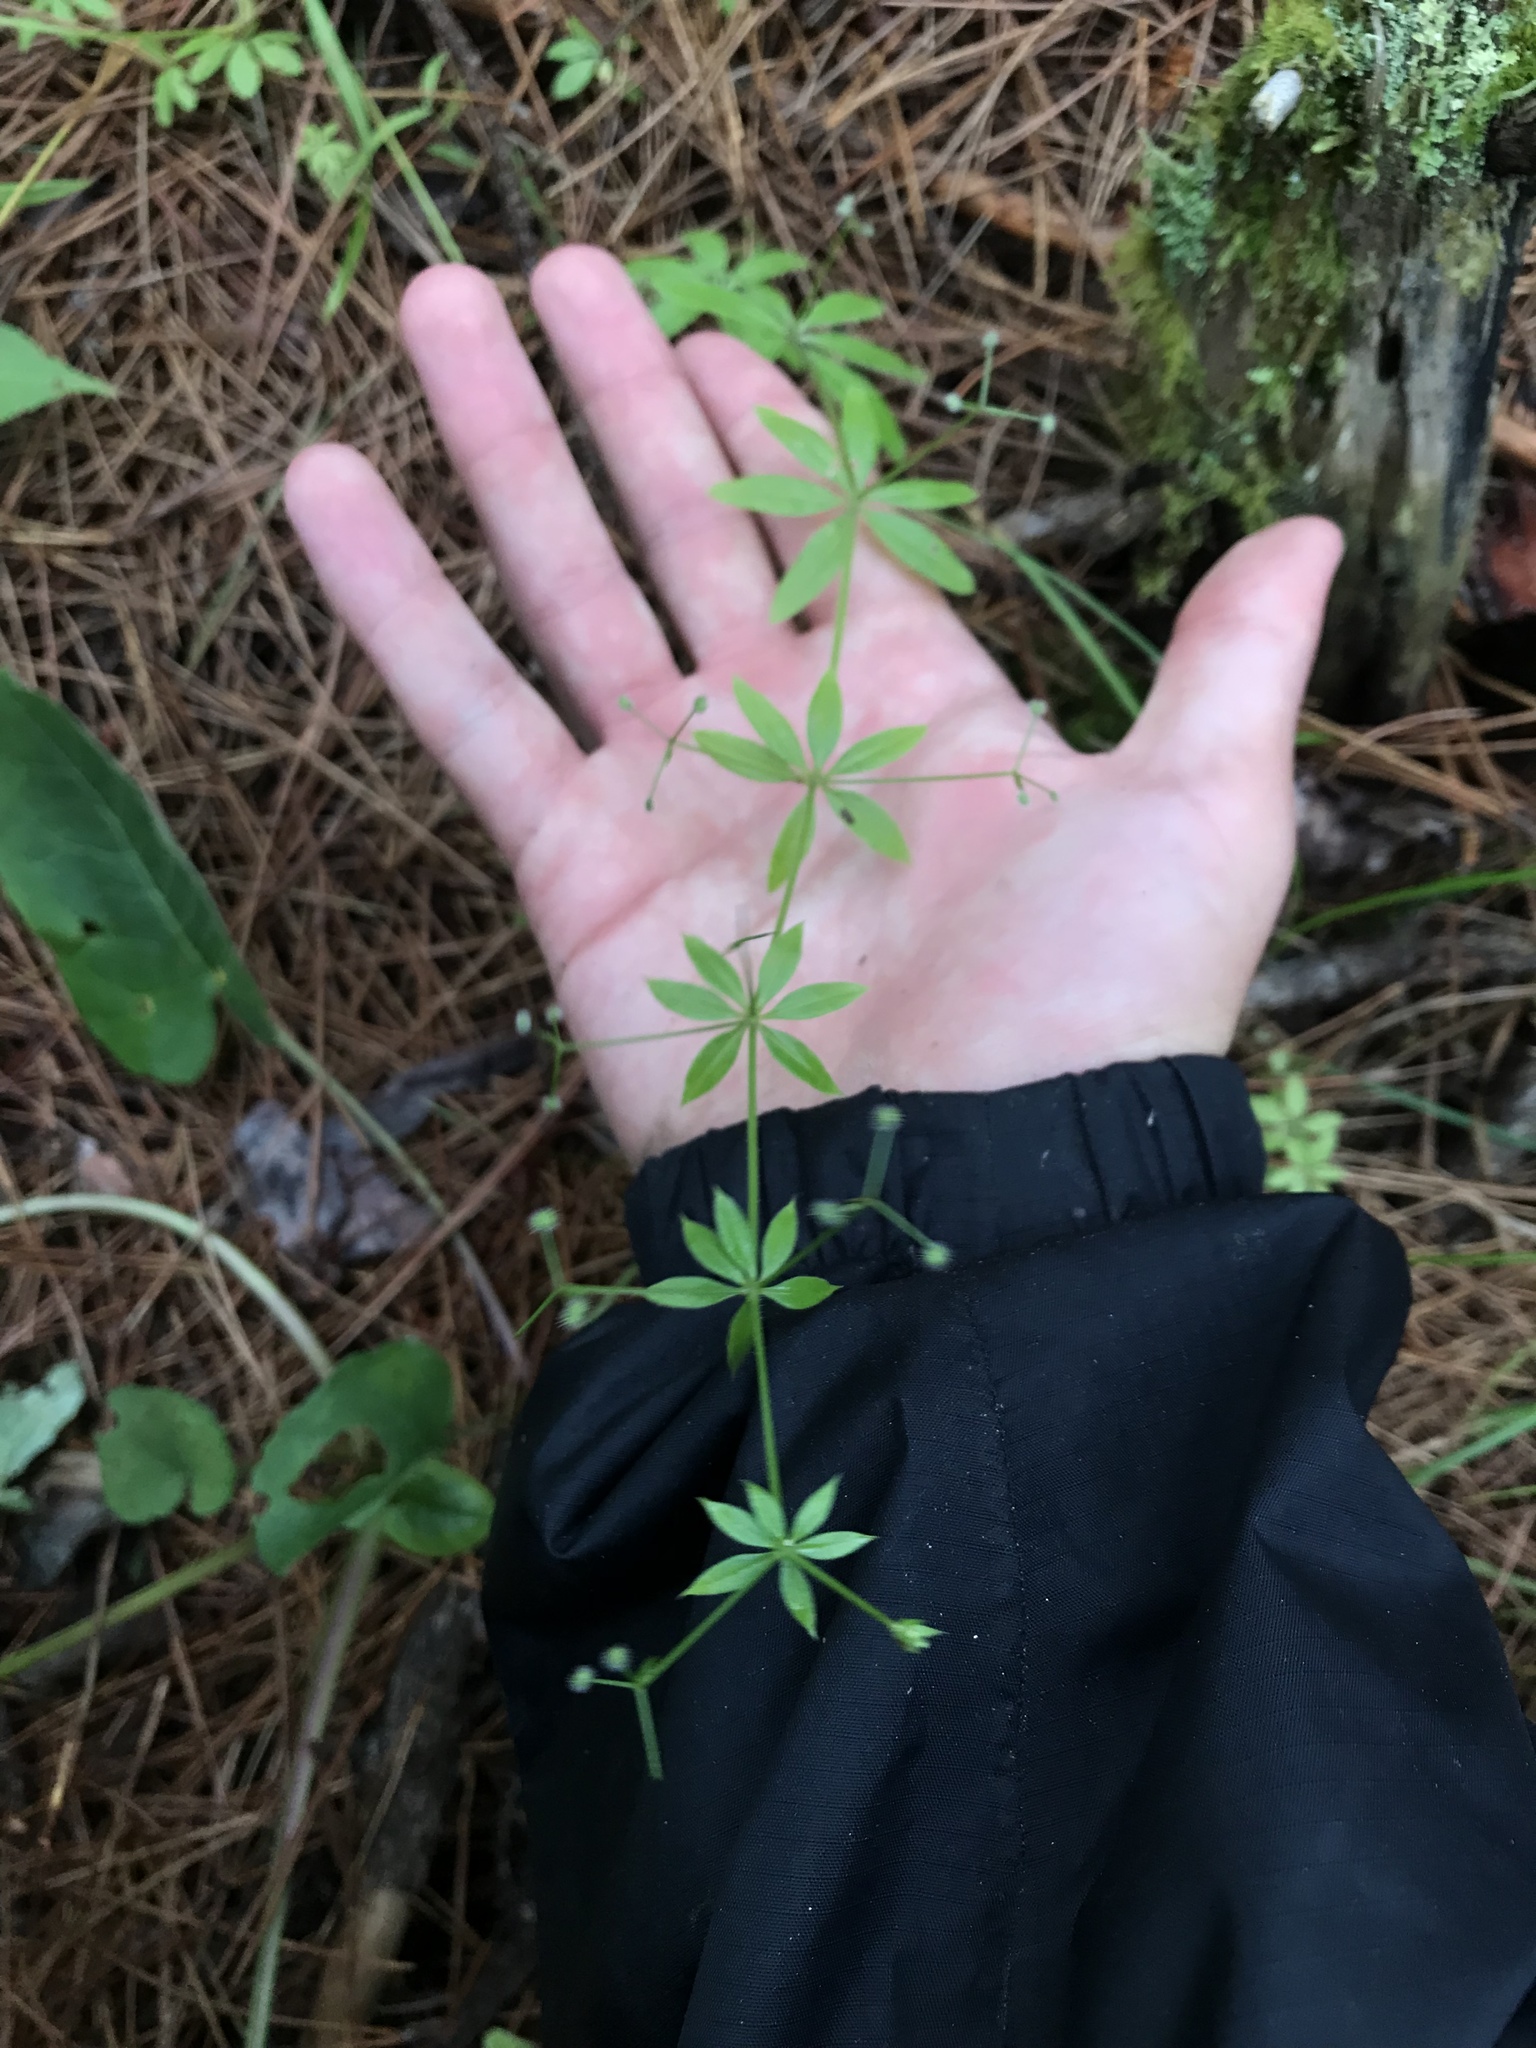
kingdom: Plantae
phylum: Tracheophyta
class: Magnoliopsida
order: Gentianales
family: Rubiaceae
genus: Galium
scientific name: Galium triflorum
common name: Fragrant bedstraw
